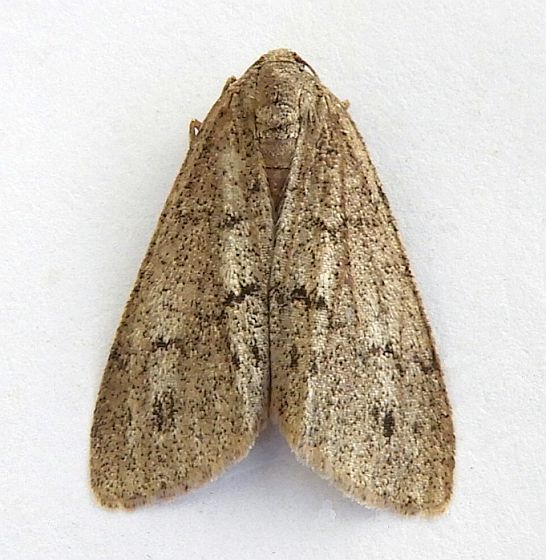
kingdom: Animalia
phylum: Arthropoda
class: Insecta
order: Lepidoptera
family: Geometridae
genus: Carphoides
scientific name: Carphoides inconspicuaria
